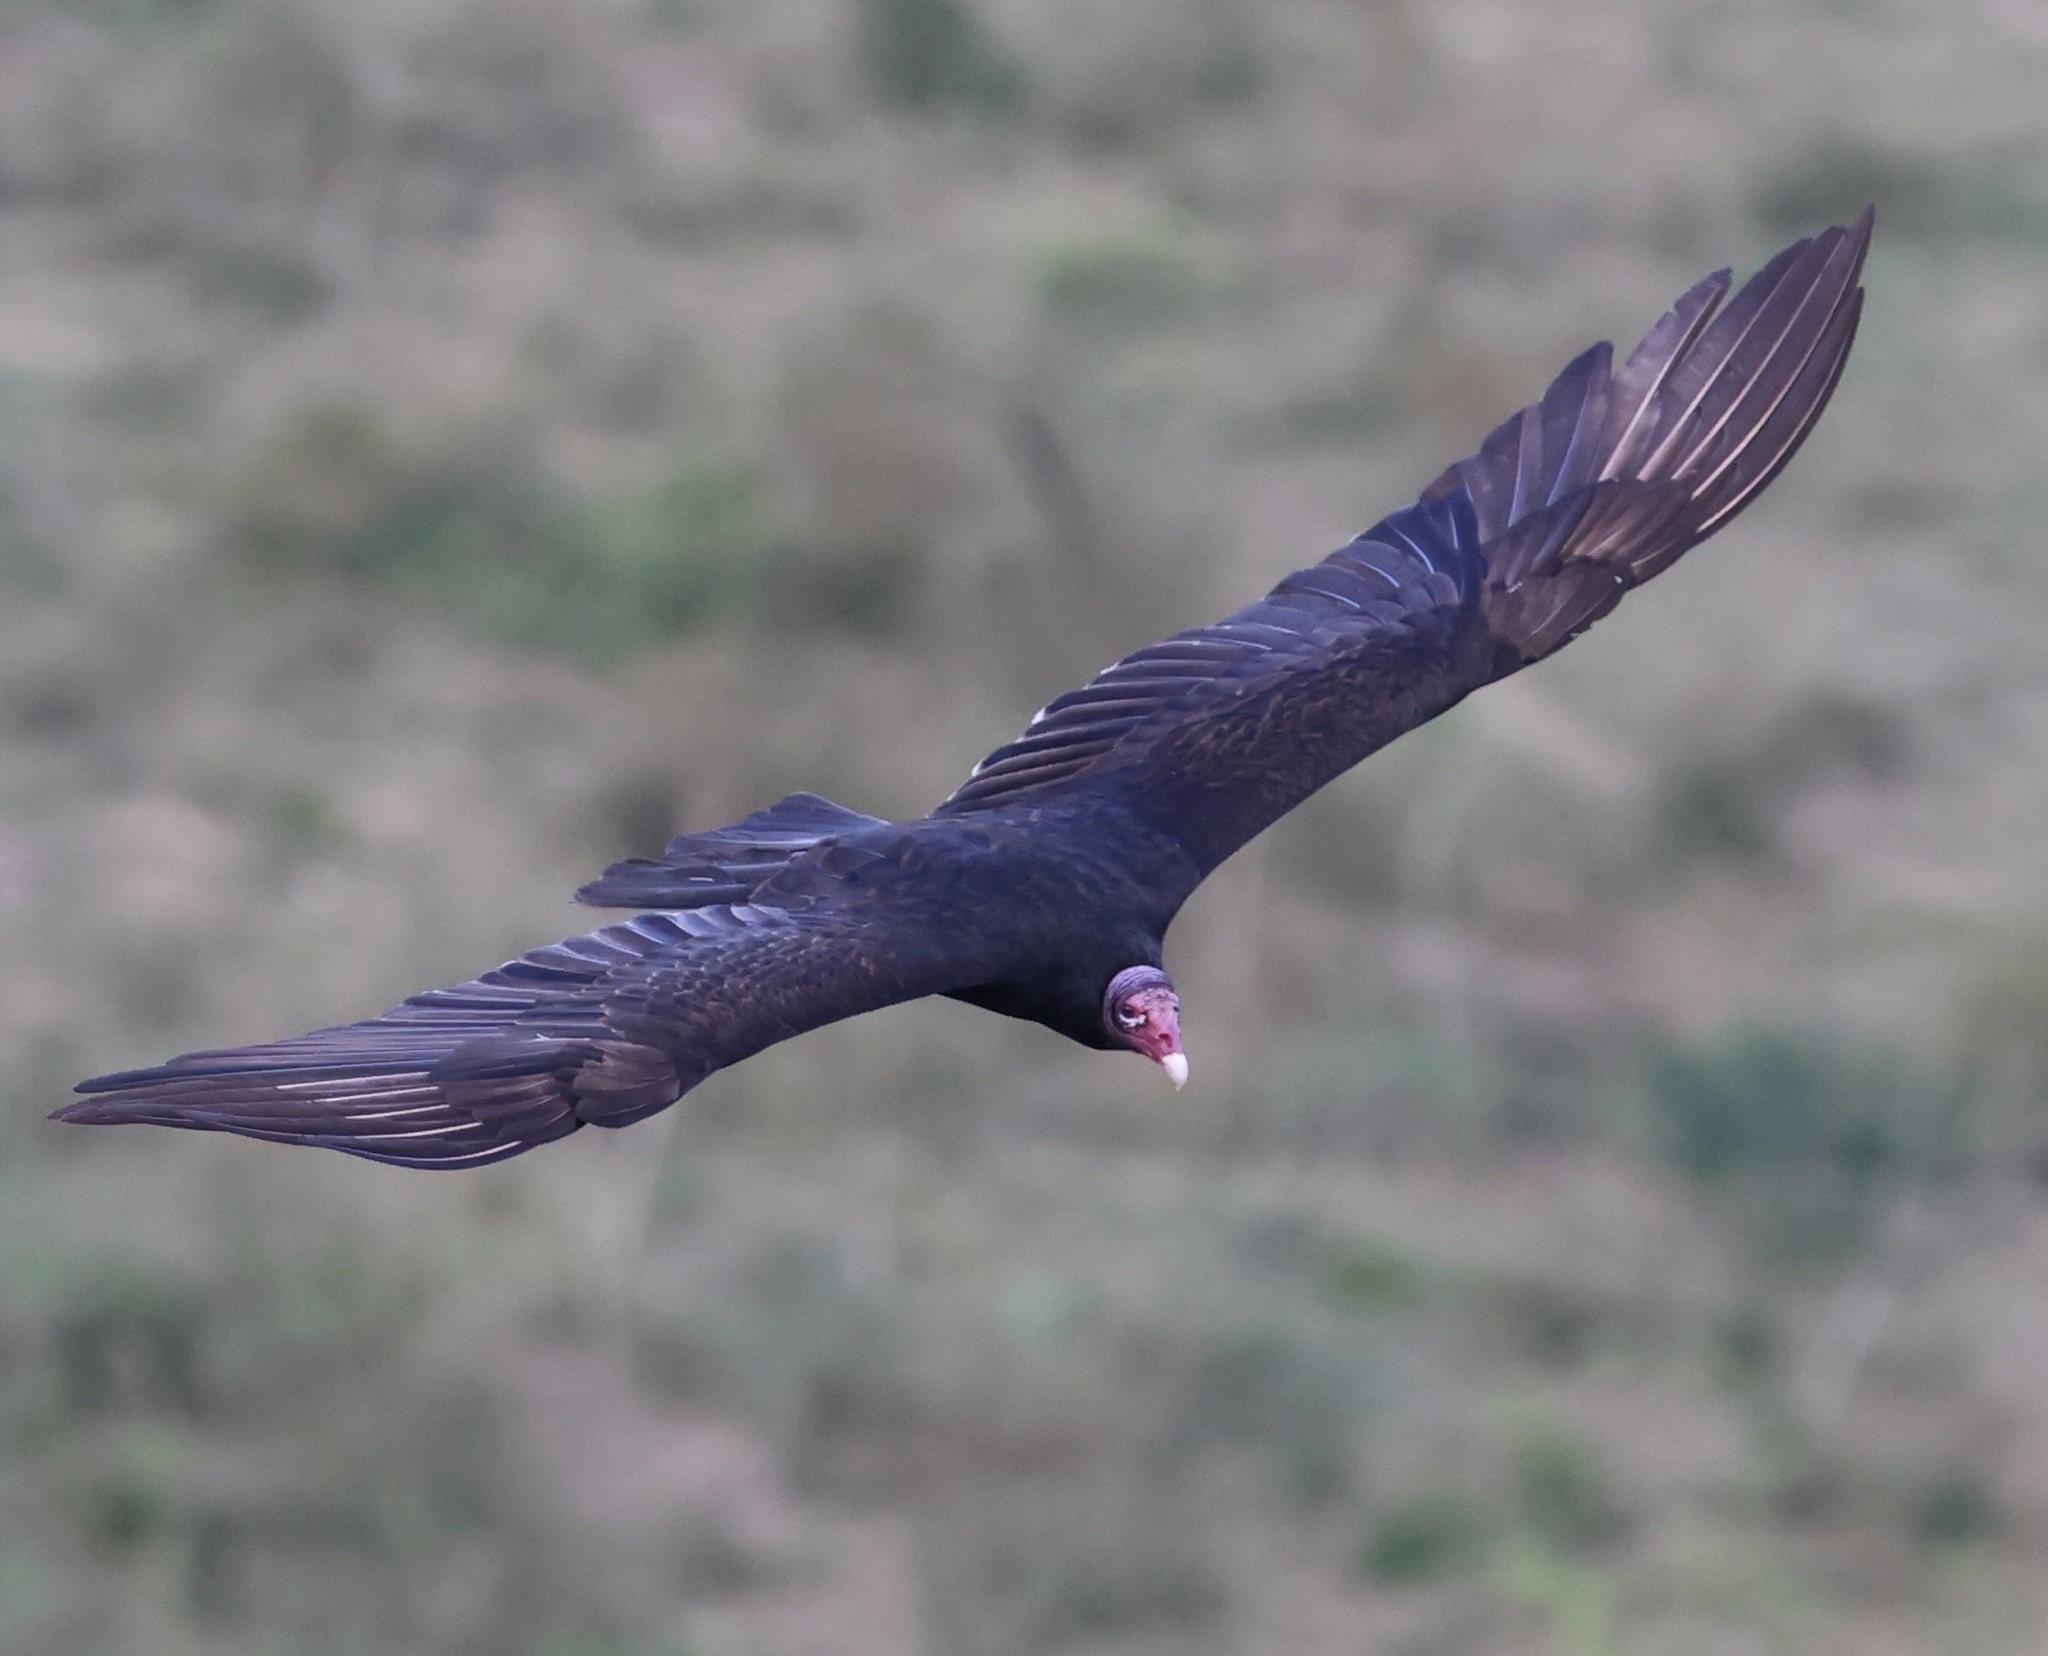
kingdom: Animalia
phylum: Chordata
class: Aves
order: Accipitriformes
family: Cathartidae
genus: Cathartes
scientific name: Cathartes aura
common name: Turkey vulture
